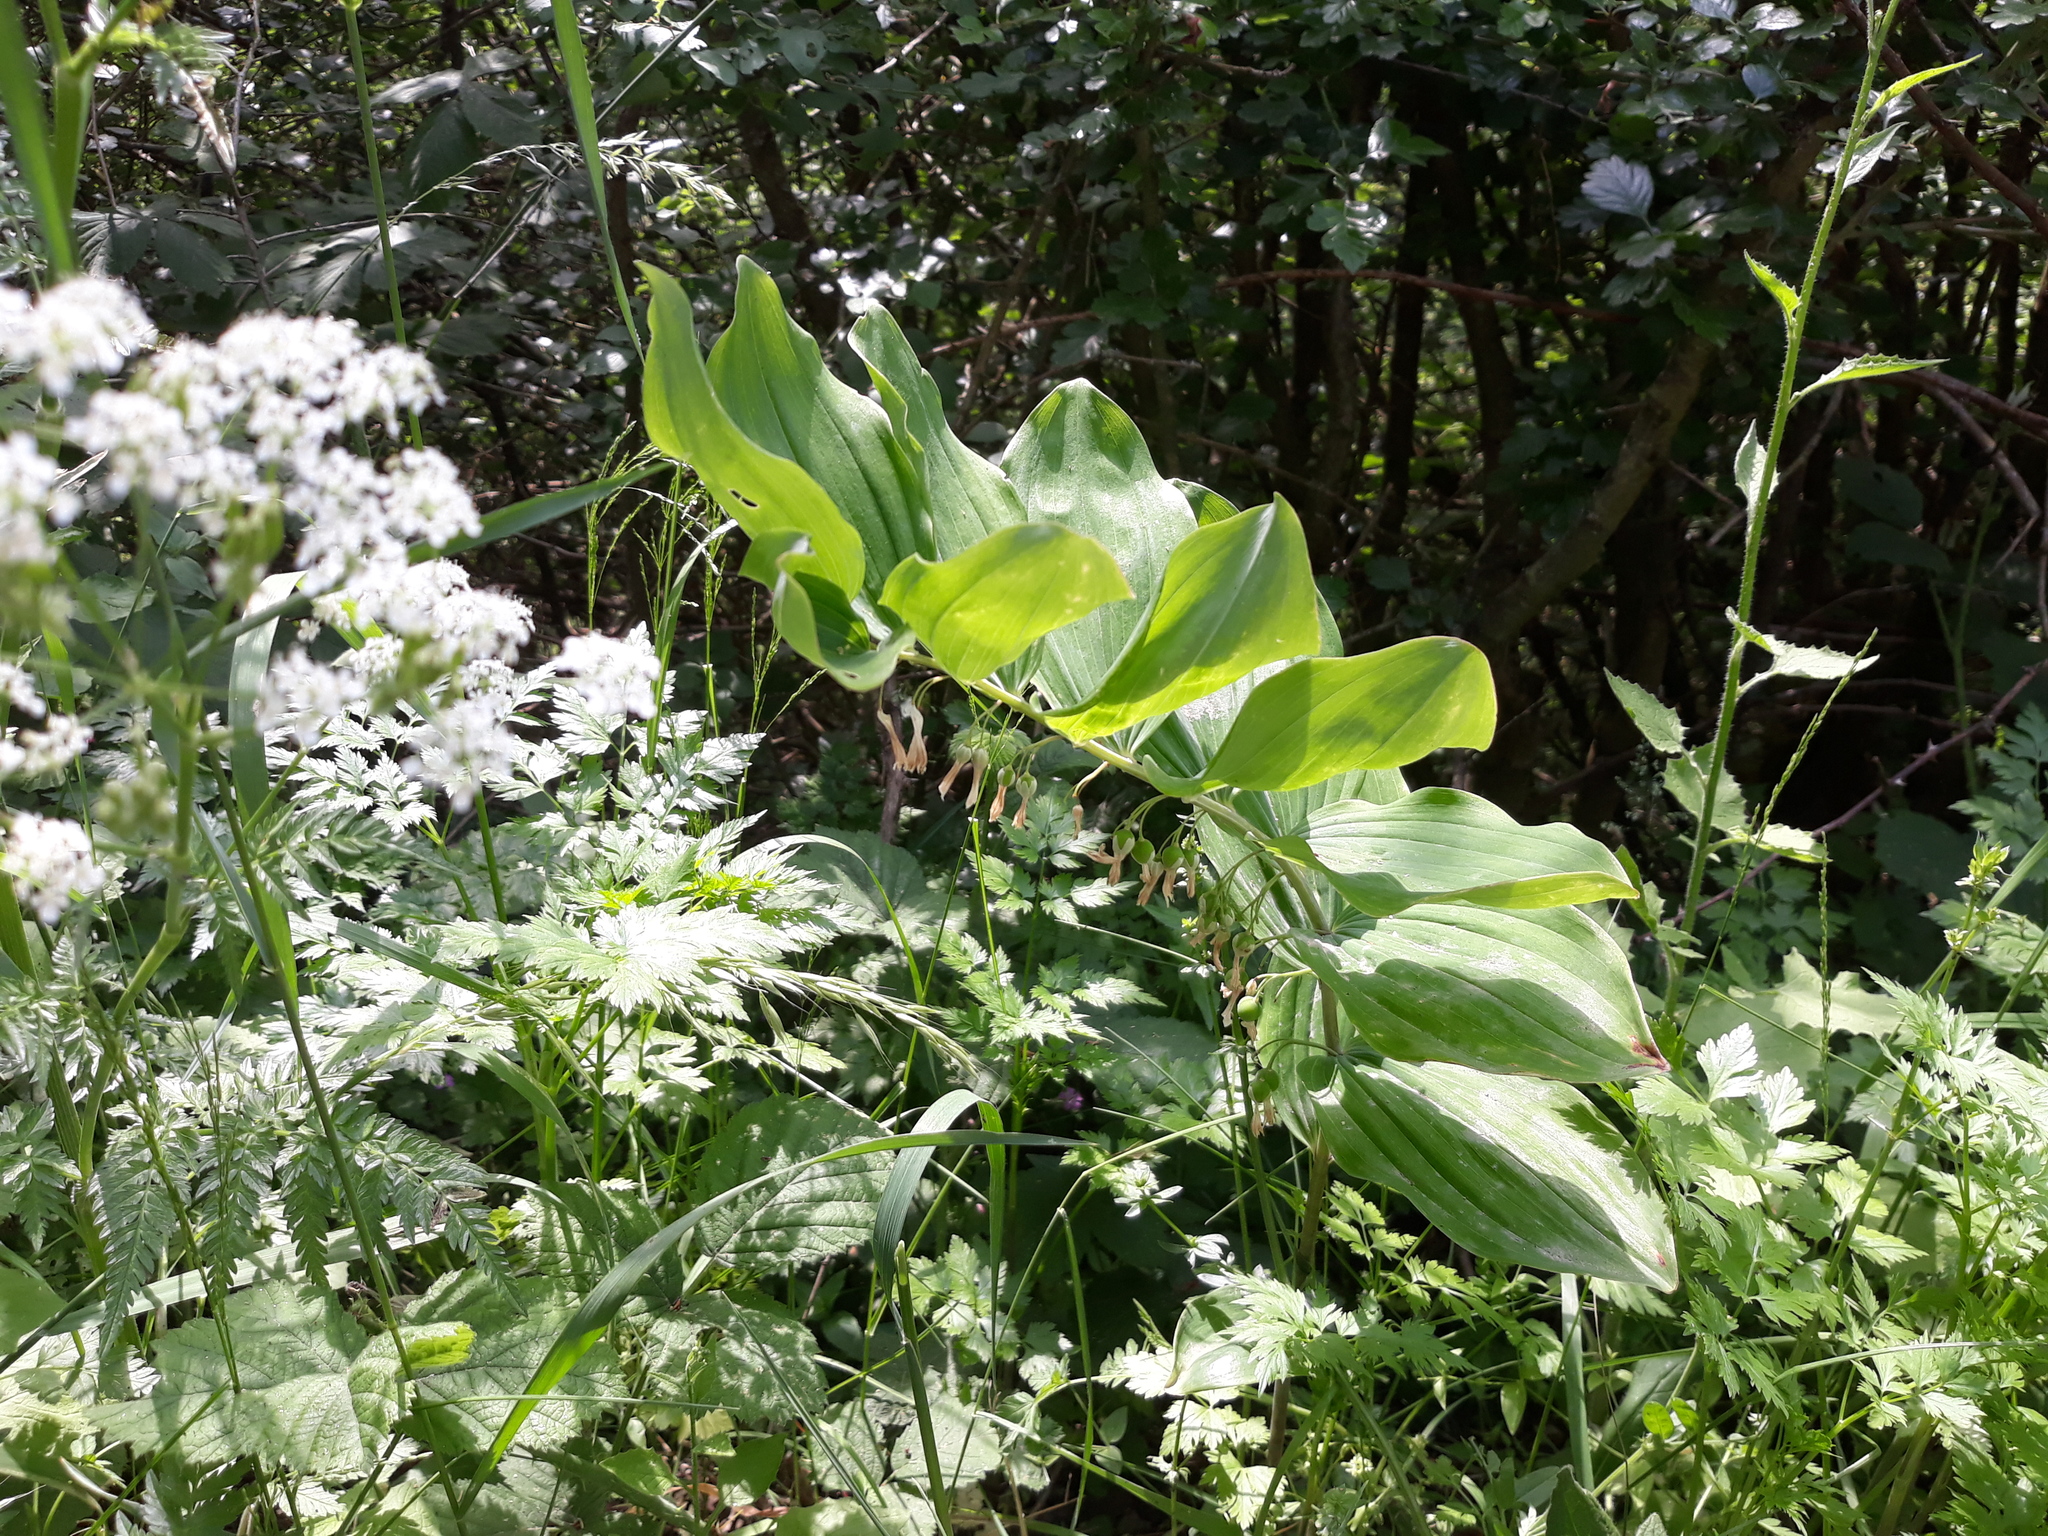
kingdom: Plantae
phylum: Tracheophyta
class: Liliopsida
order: Asparagales
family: Asparagaceae
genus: Polygonatum
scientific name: Polygonatum hybridum
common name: Garden solomon's-seal
